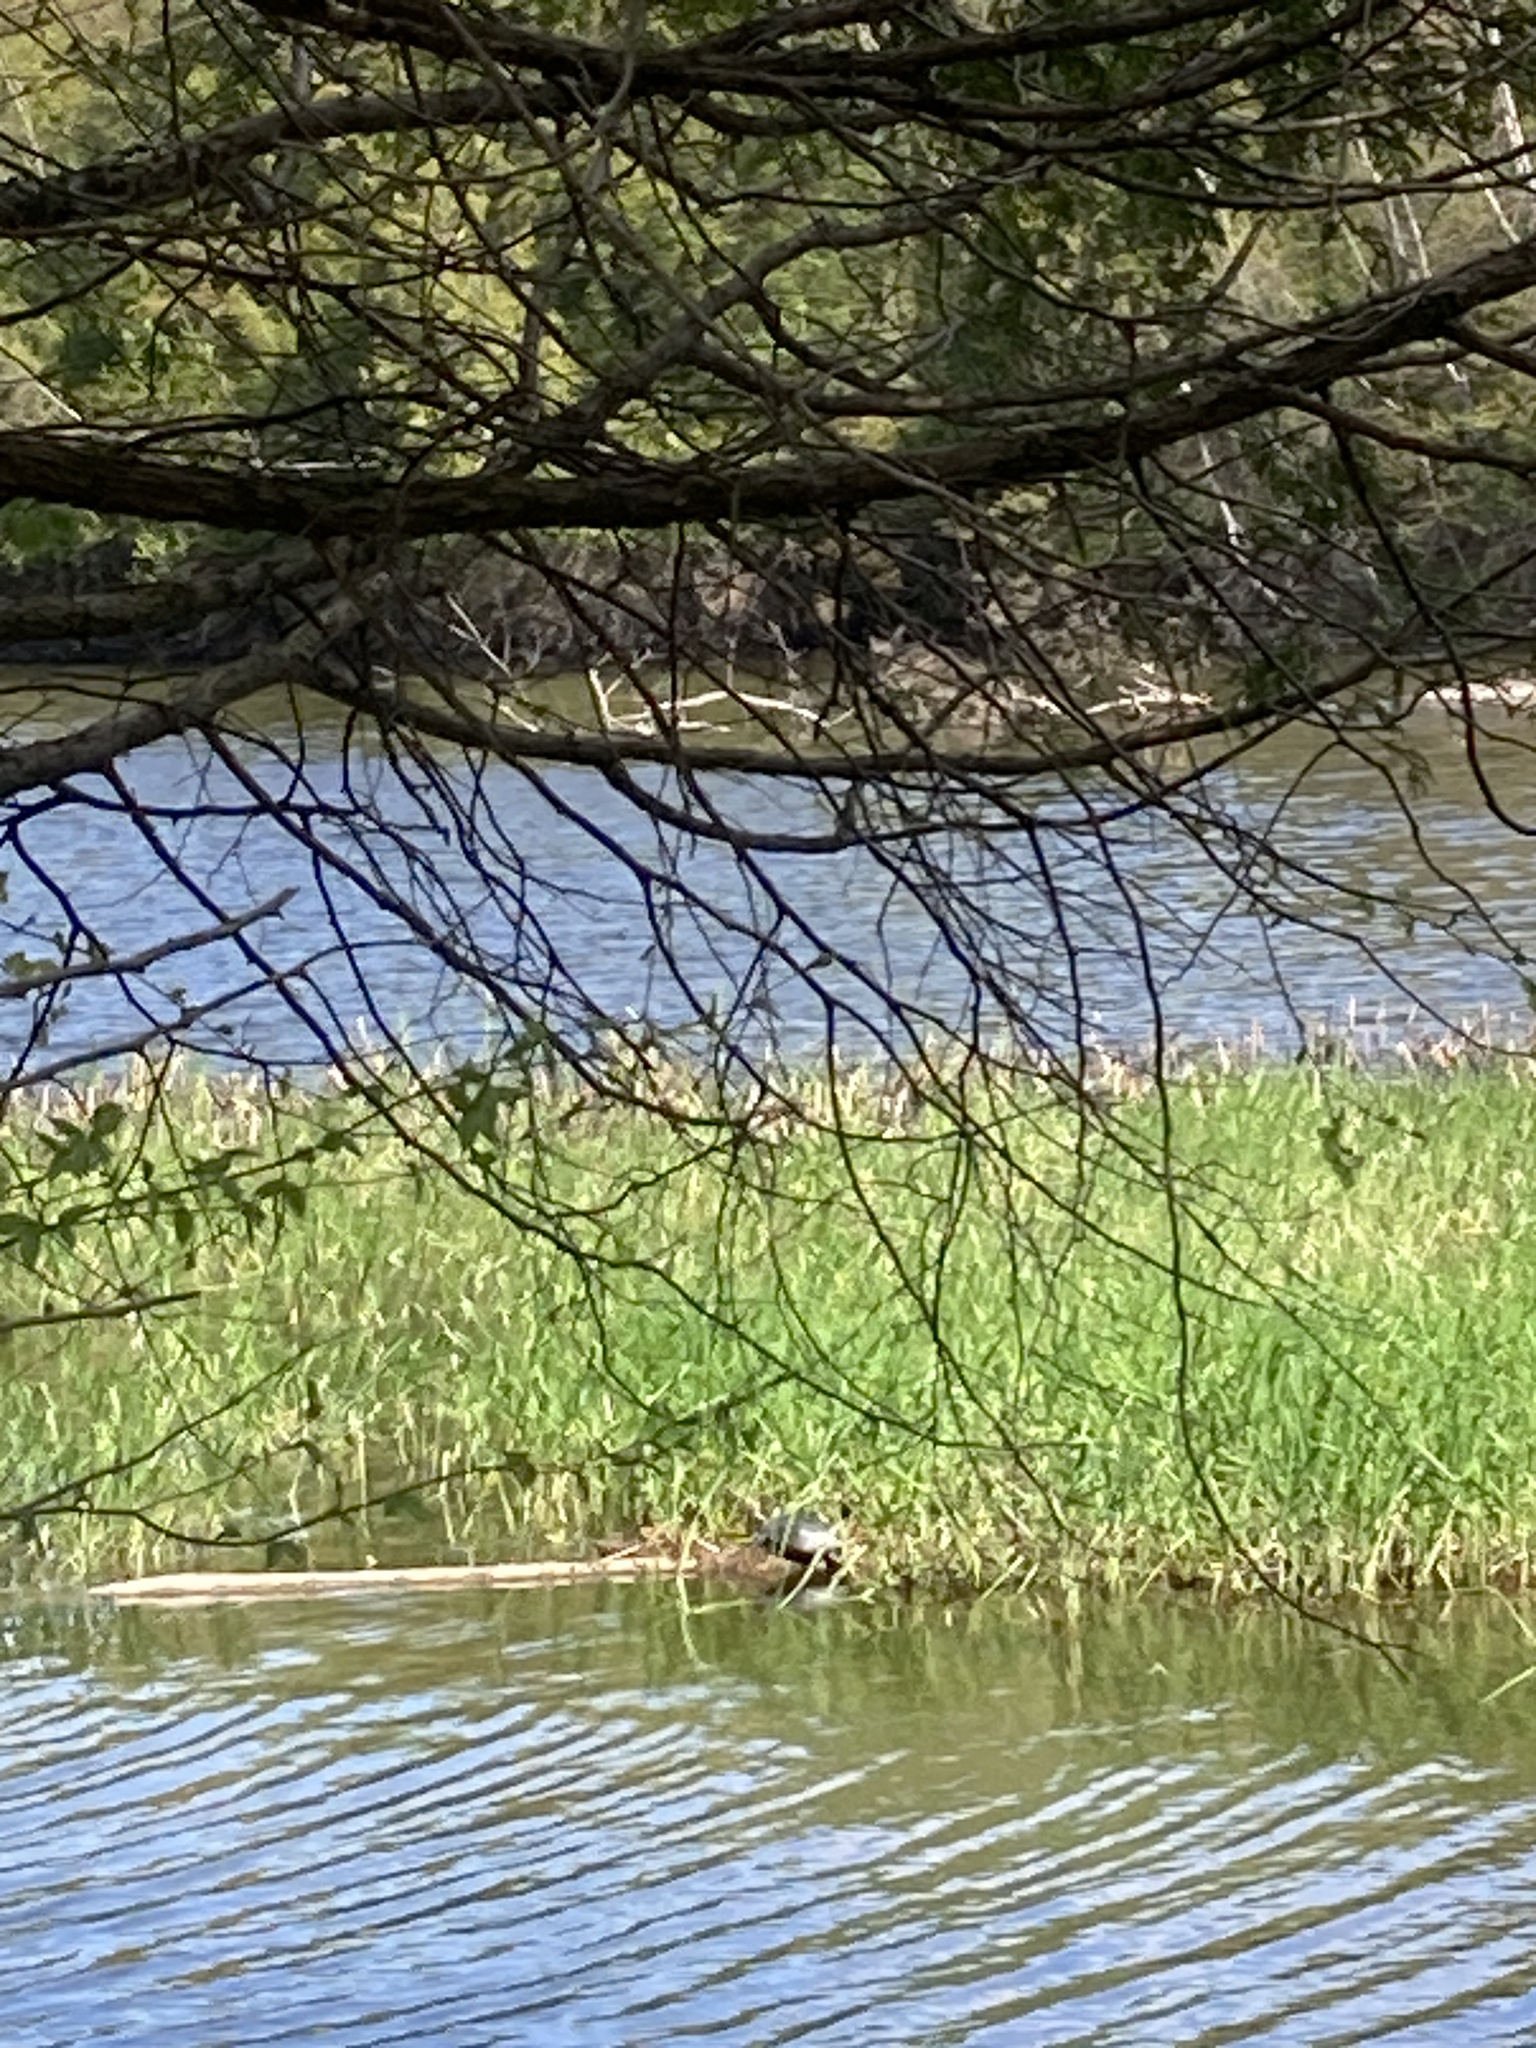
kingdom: Animalia
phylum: Chordata
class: Testudines
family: Emydidae
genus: Chrysemys
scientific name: Chrysemys picta
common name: Painted turtle
